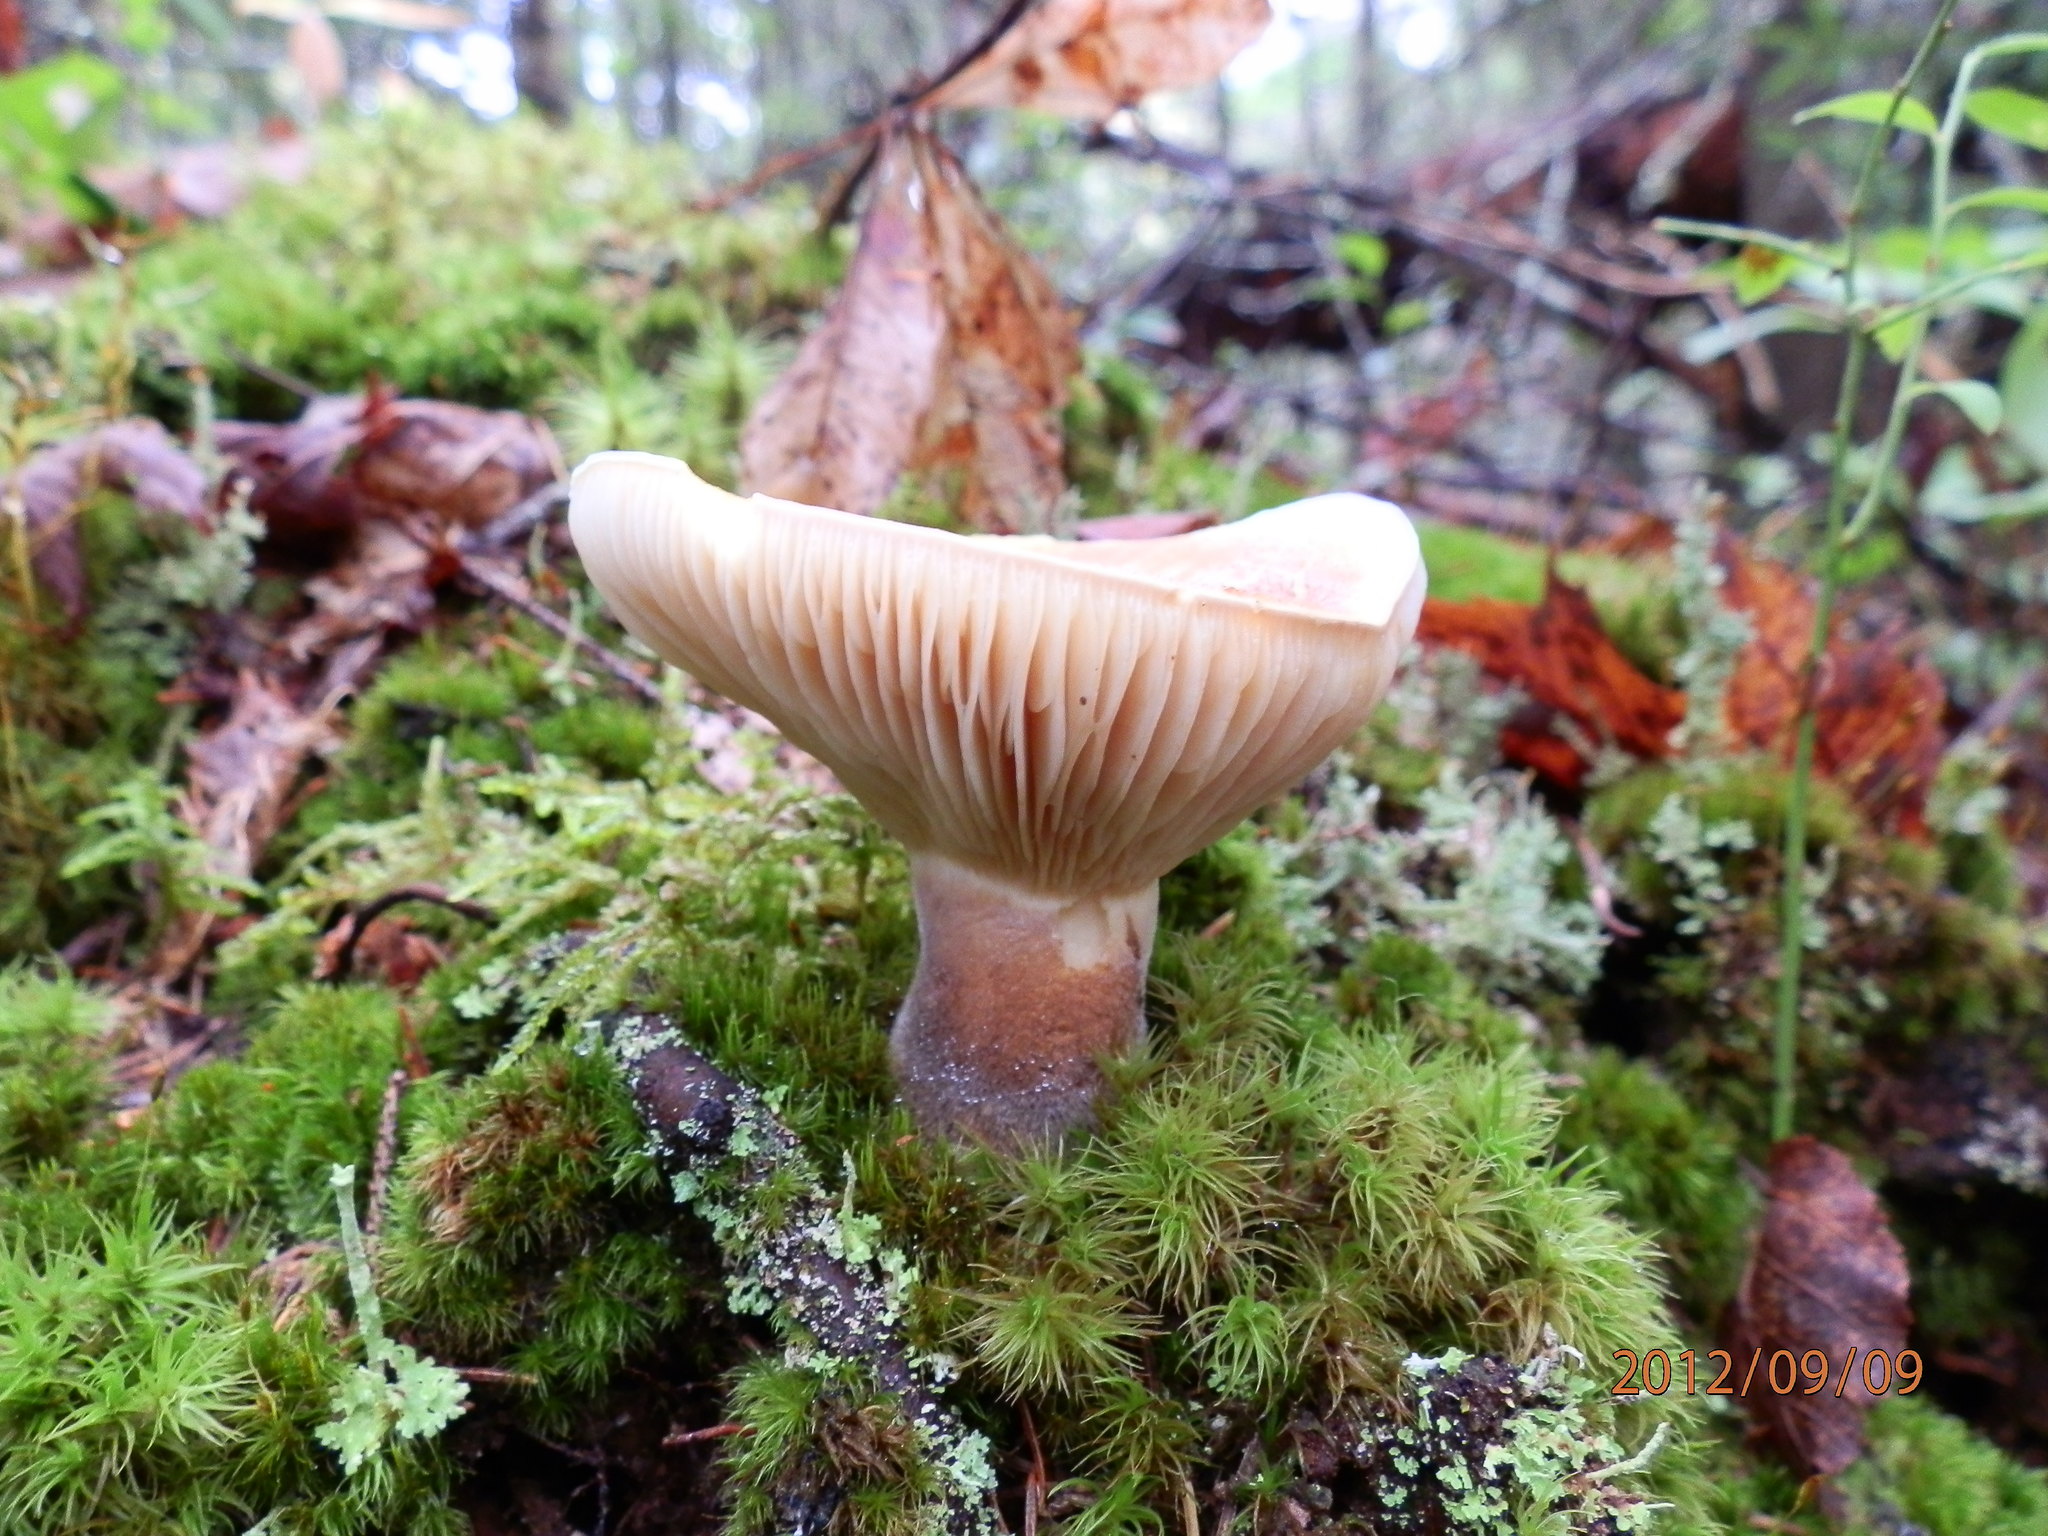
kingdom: Fungi
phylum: Basidiomycota
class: Agaricomycetes
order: Russulales
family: Russulaceae
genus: Lactifluus
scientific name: Lactifluus volemus
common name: Fishy milkcap
